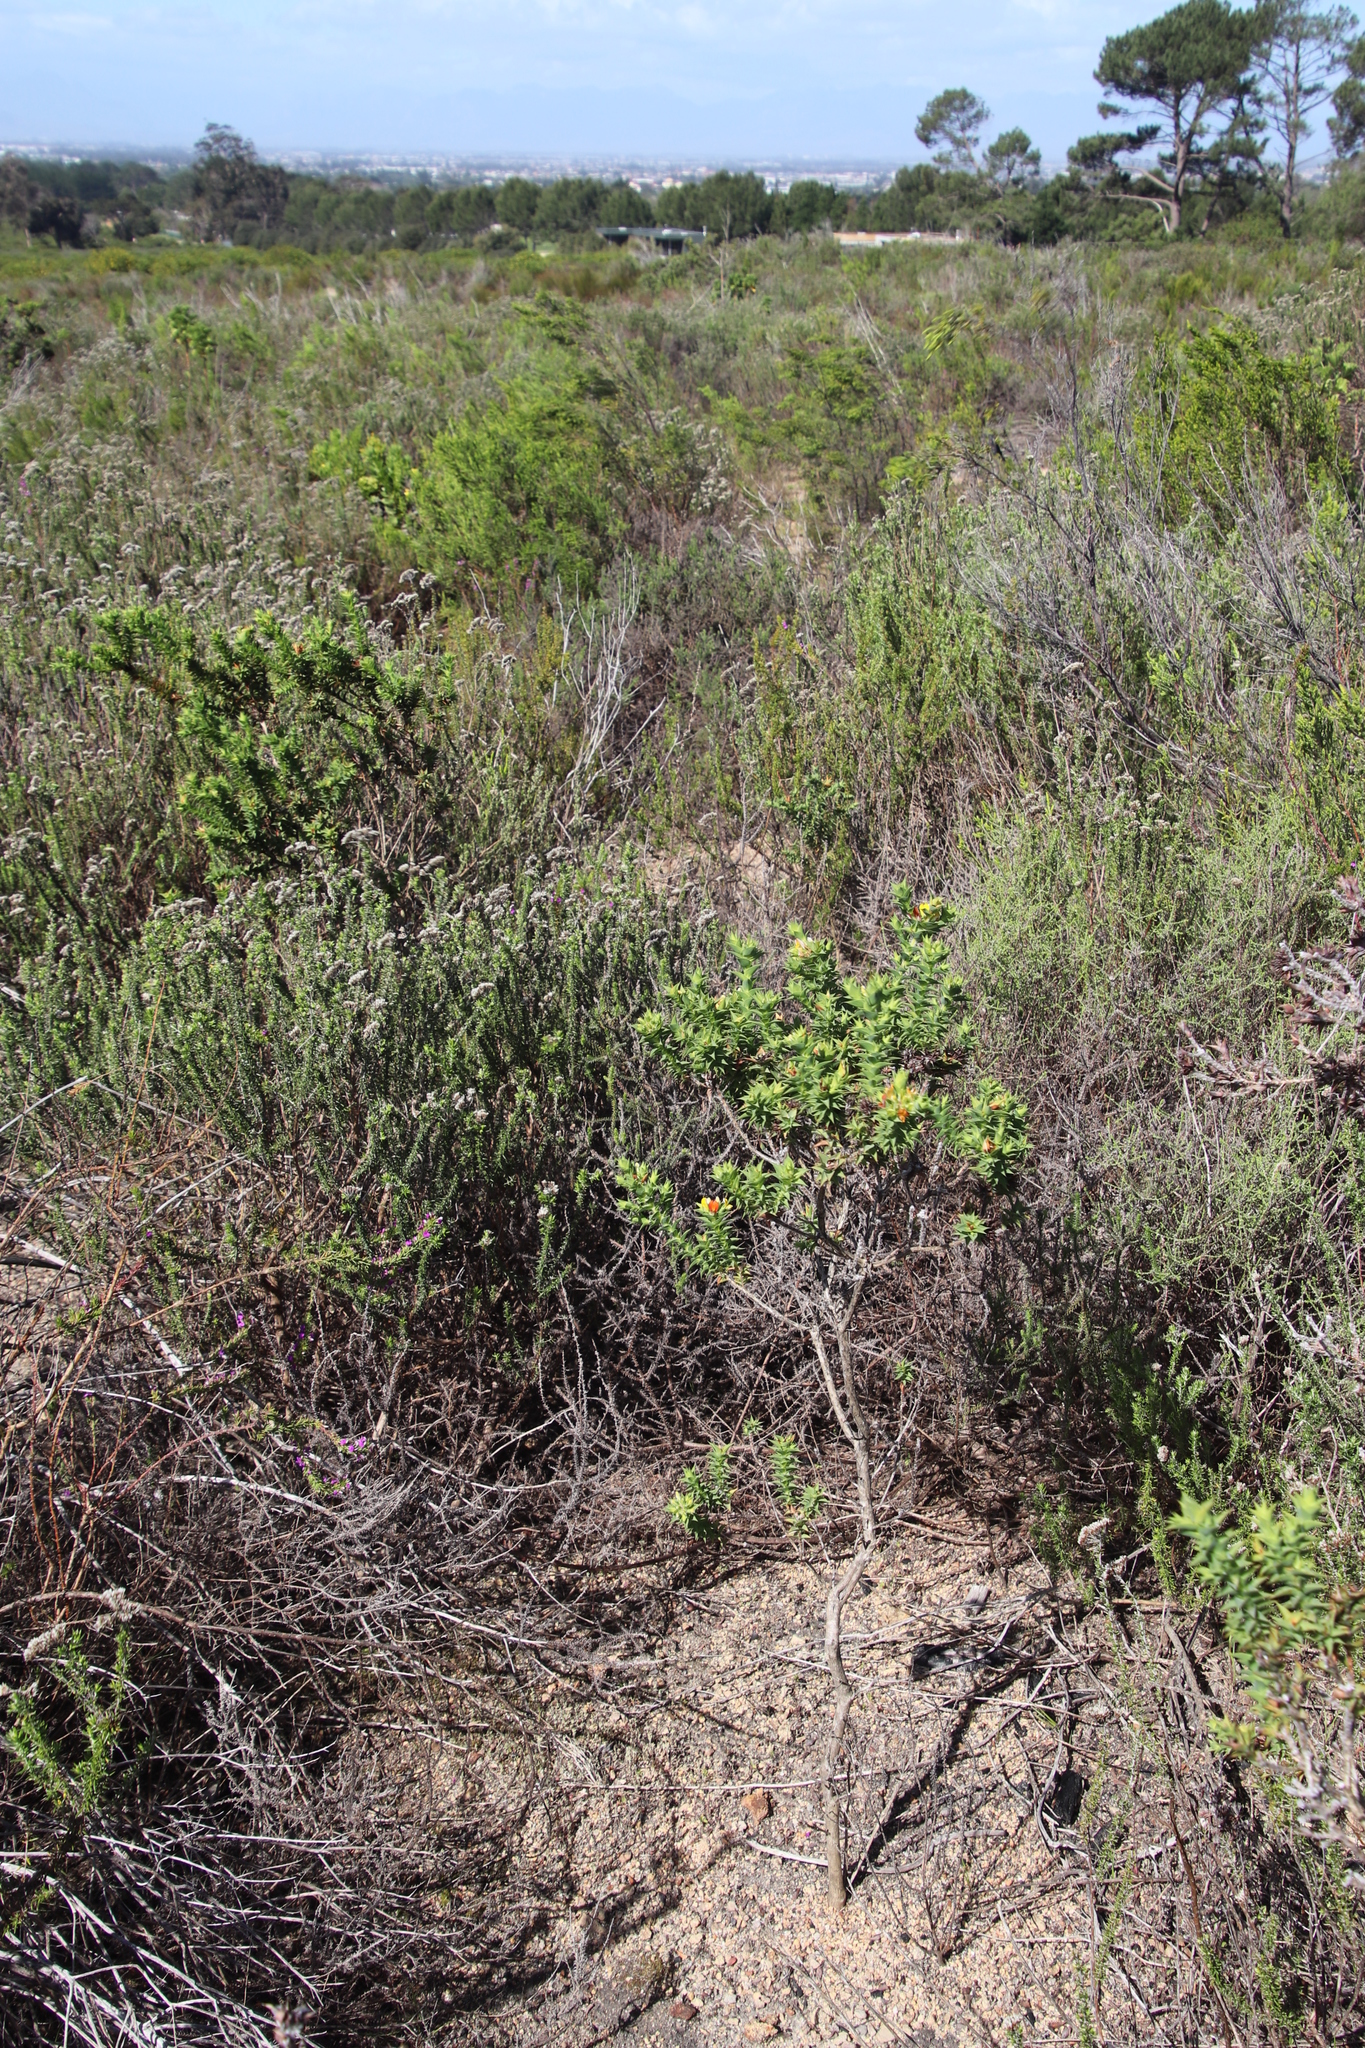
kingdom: Plantae
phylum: Tracheophyta
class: Magnoliopsida
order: Fabales
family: Fabaceae
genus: Aspalathus
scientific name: Aspalathus cordata
